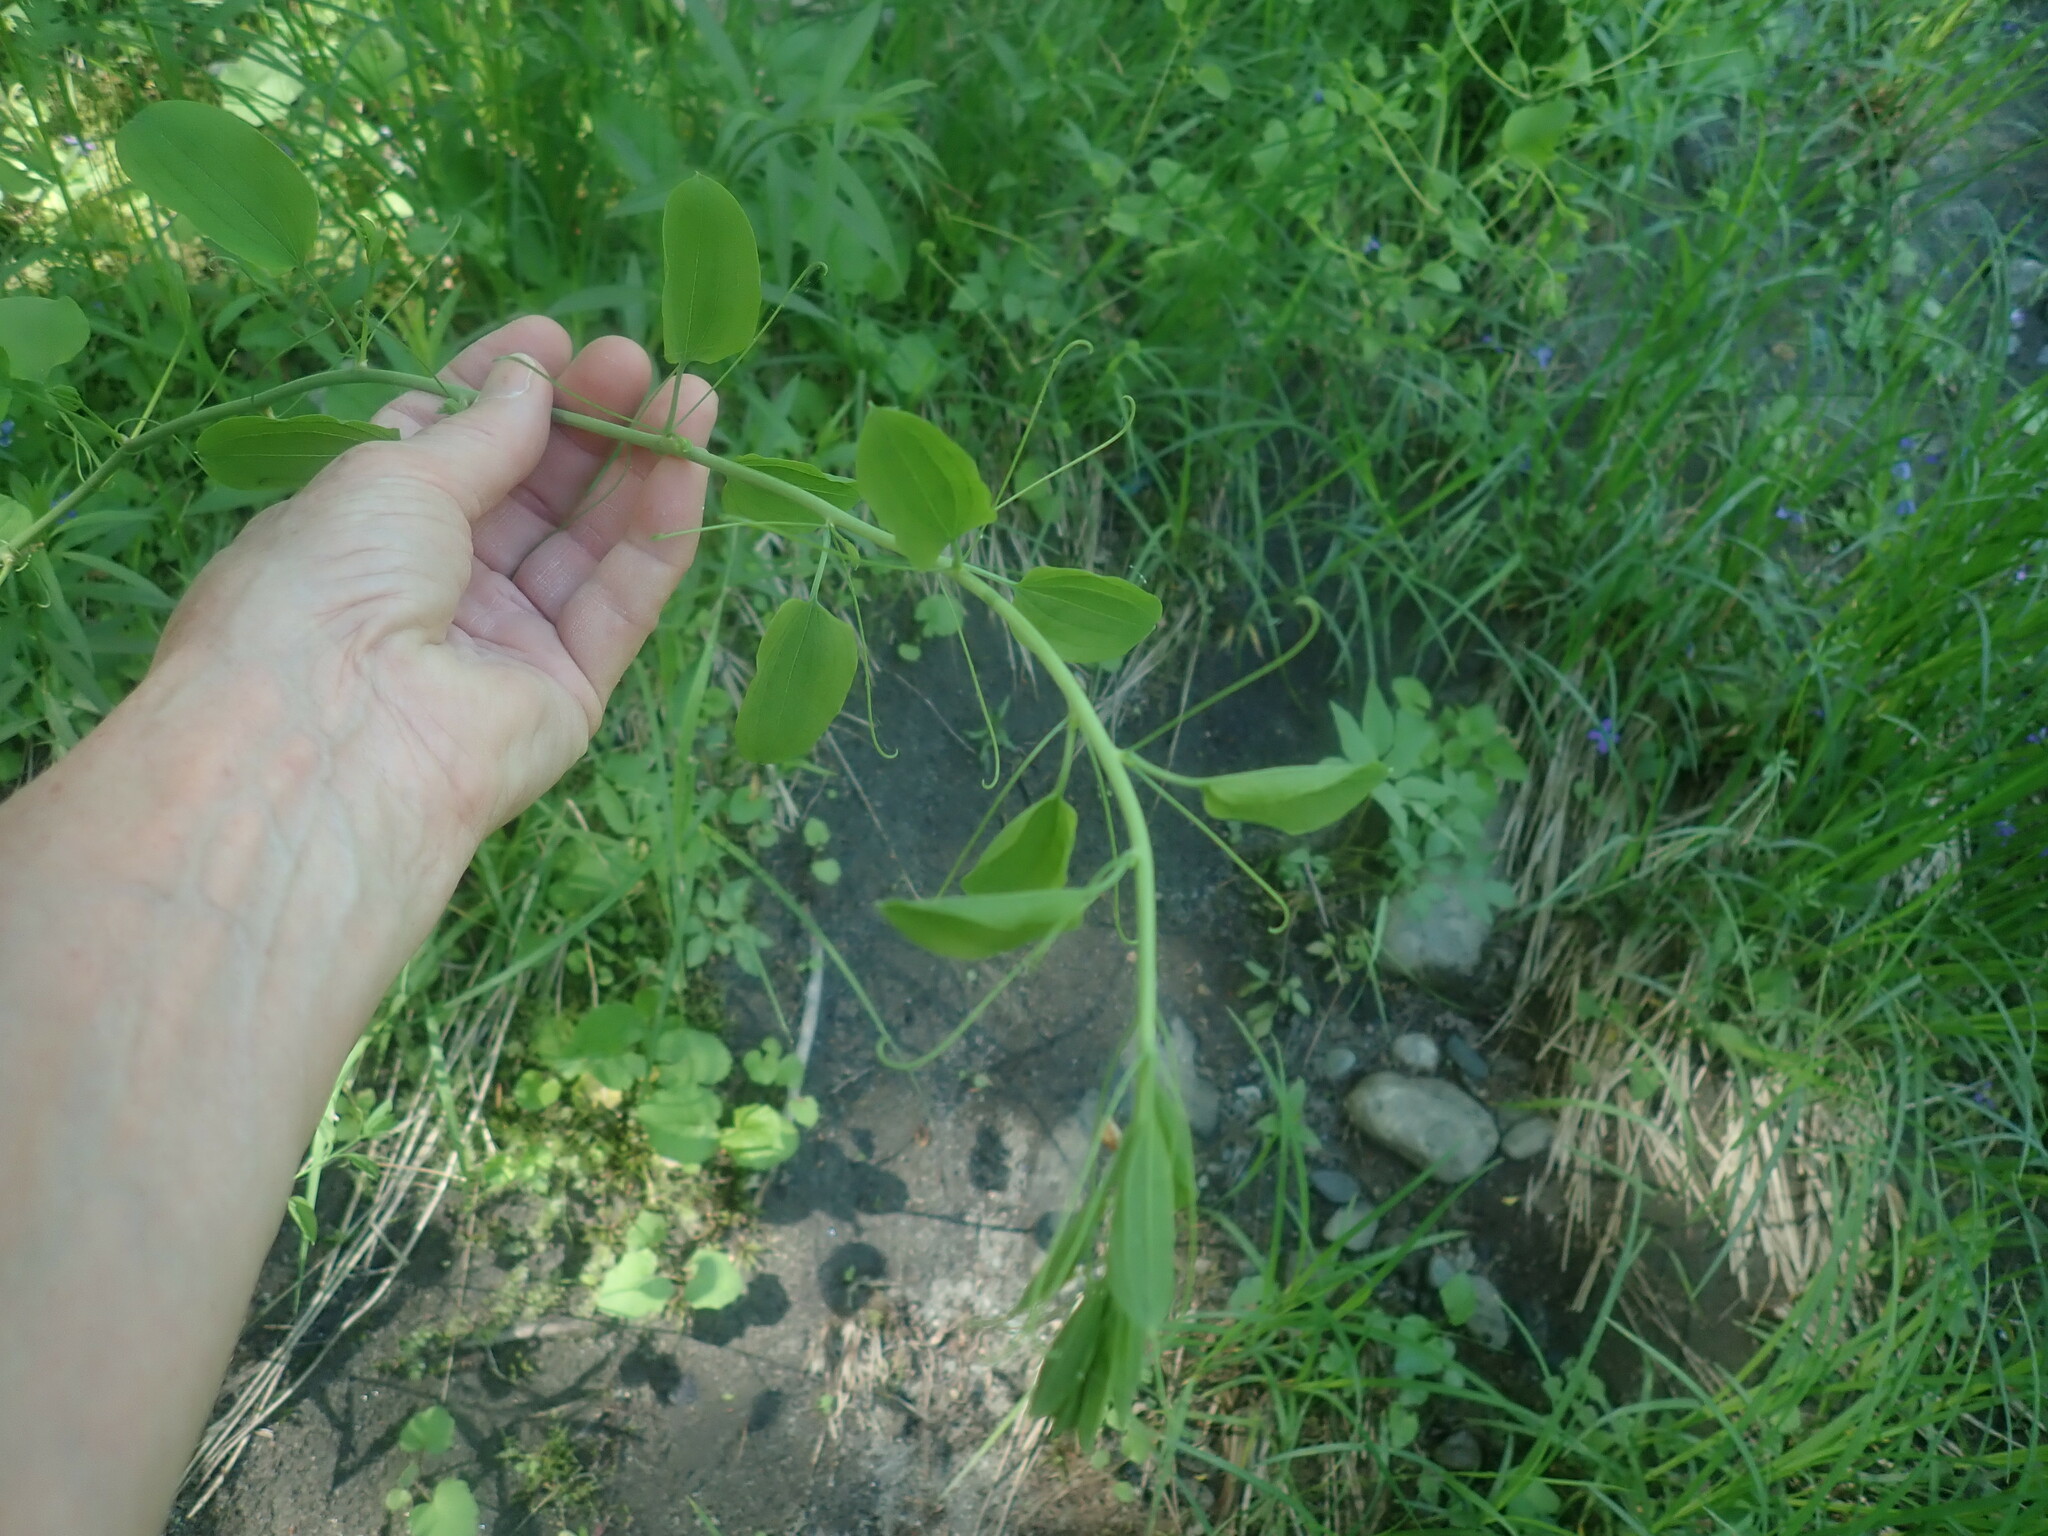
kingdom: Plantae
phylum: Tracheophyta
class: Liliopsida
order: Liliales
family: Smilacaceae
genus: Smilax
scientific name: Smilax herbacea
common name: Jacob's-ladder
